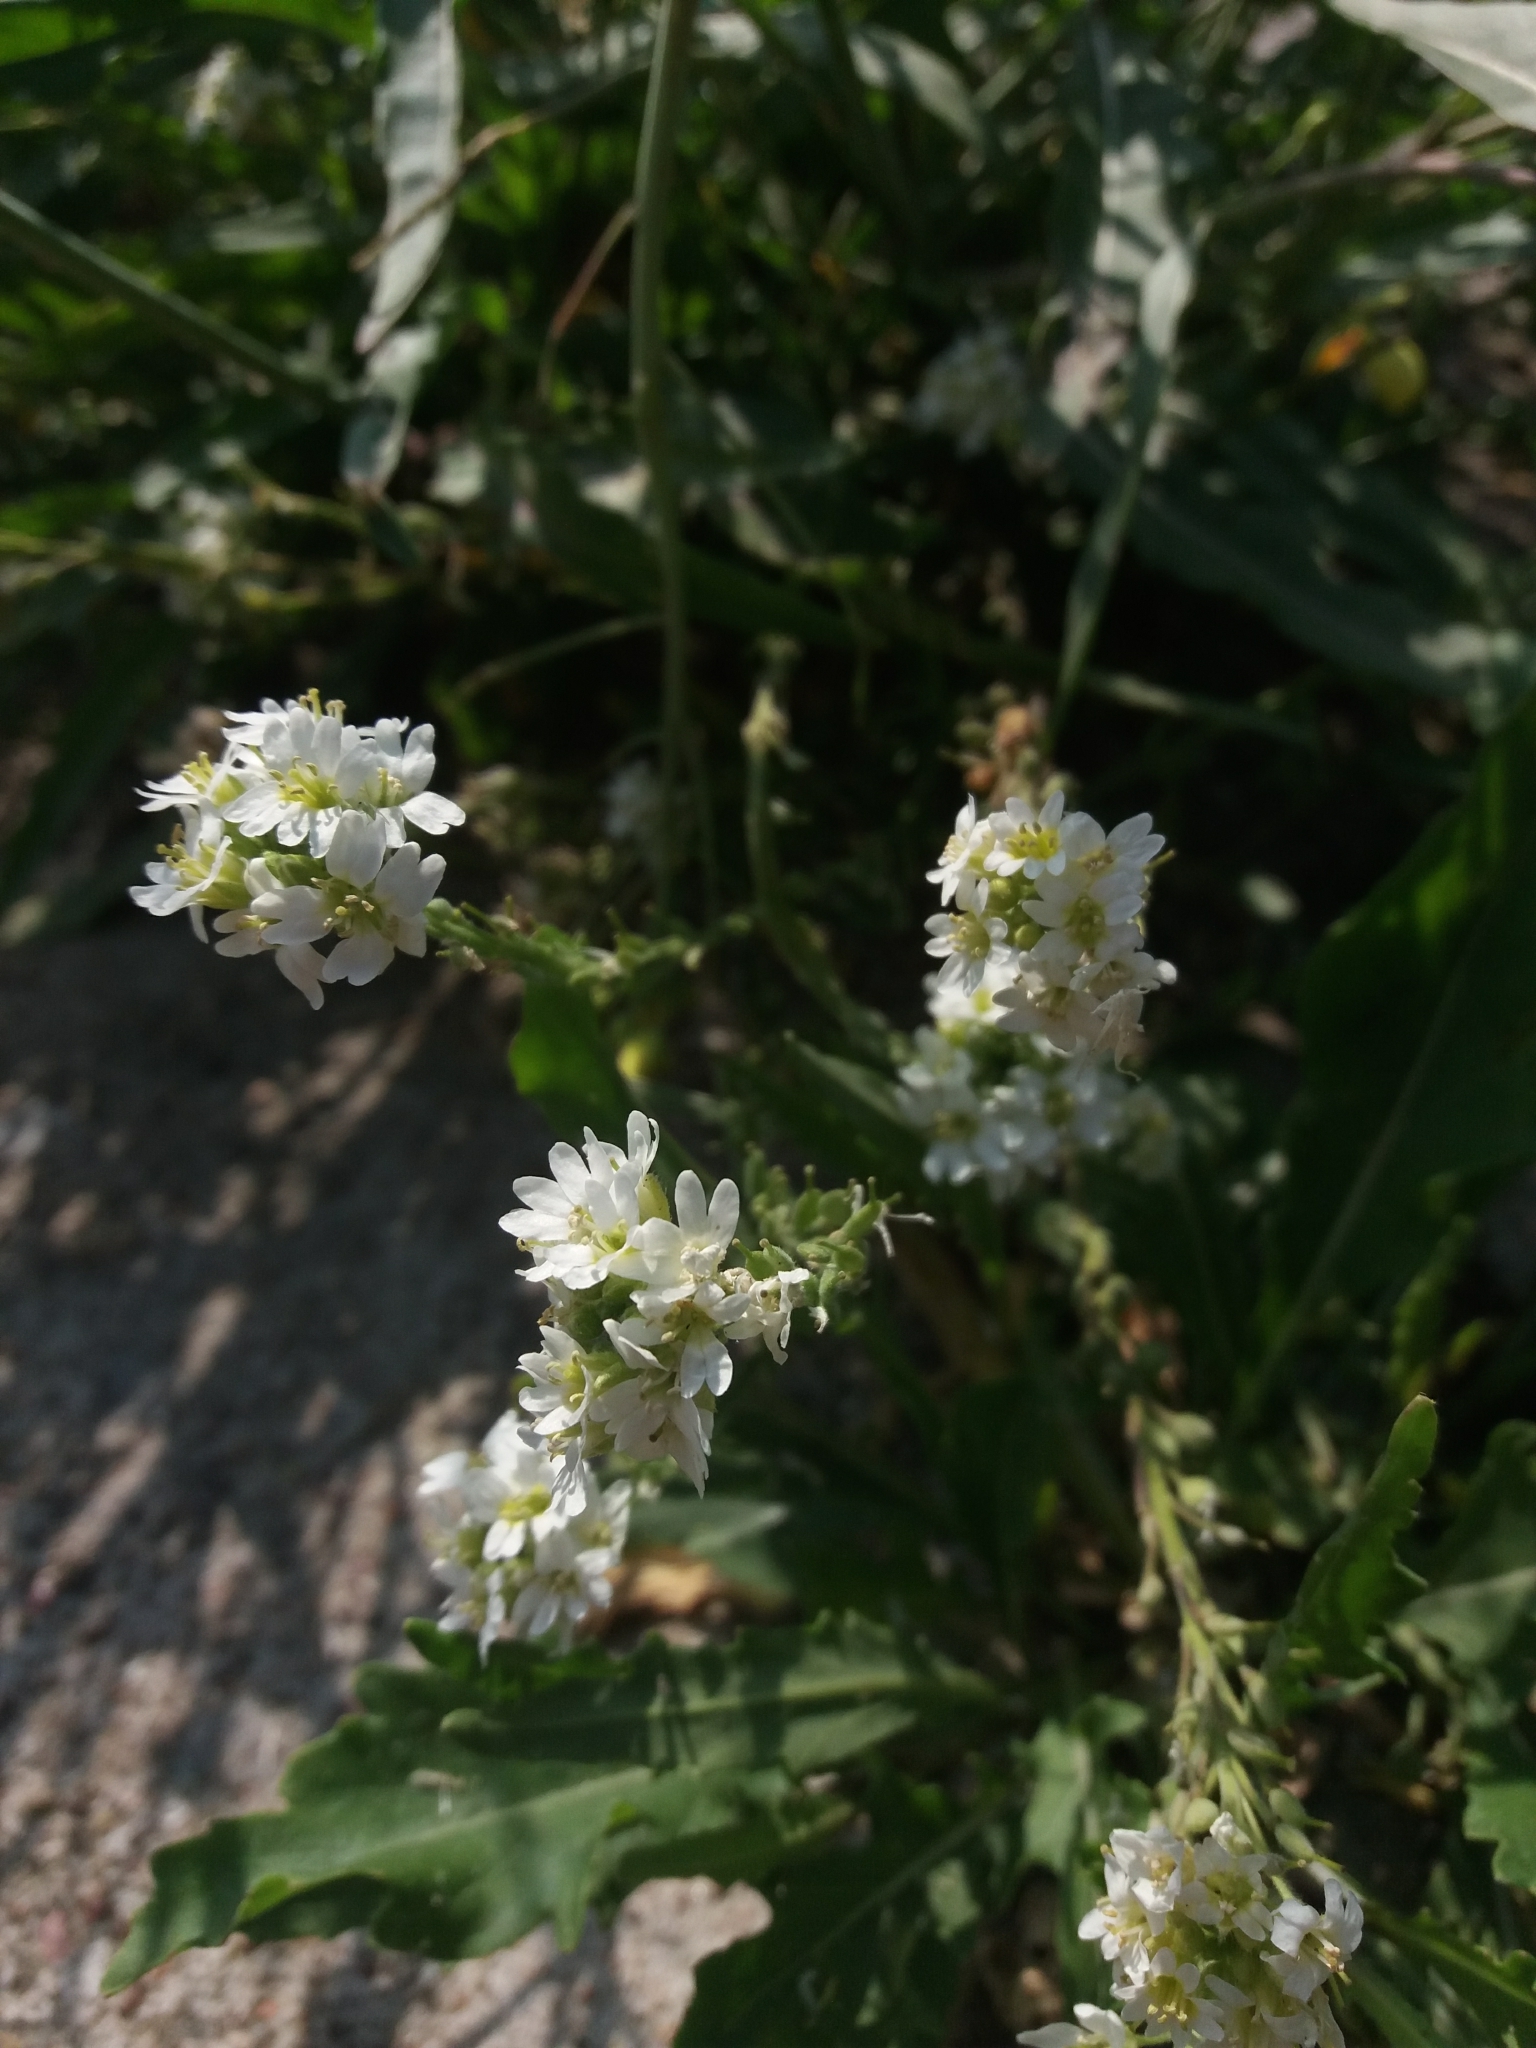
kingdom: Plantae
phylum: Tracheophyta
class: Magnoliopsida
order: Brassicales
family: Brassicaceae
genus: Berteroa
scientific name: Berteroa incana
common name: Hoary alison
